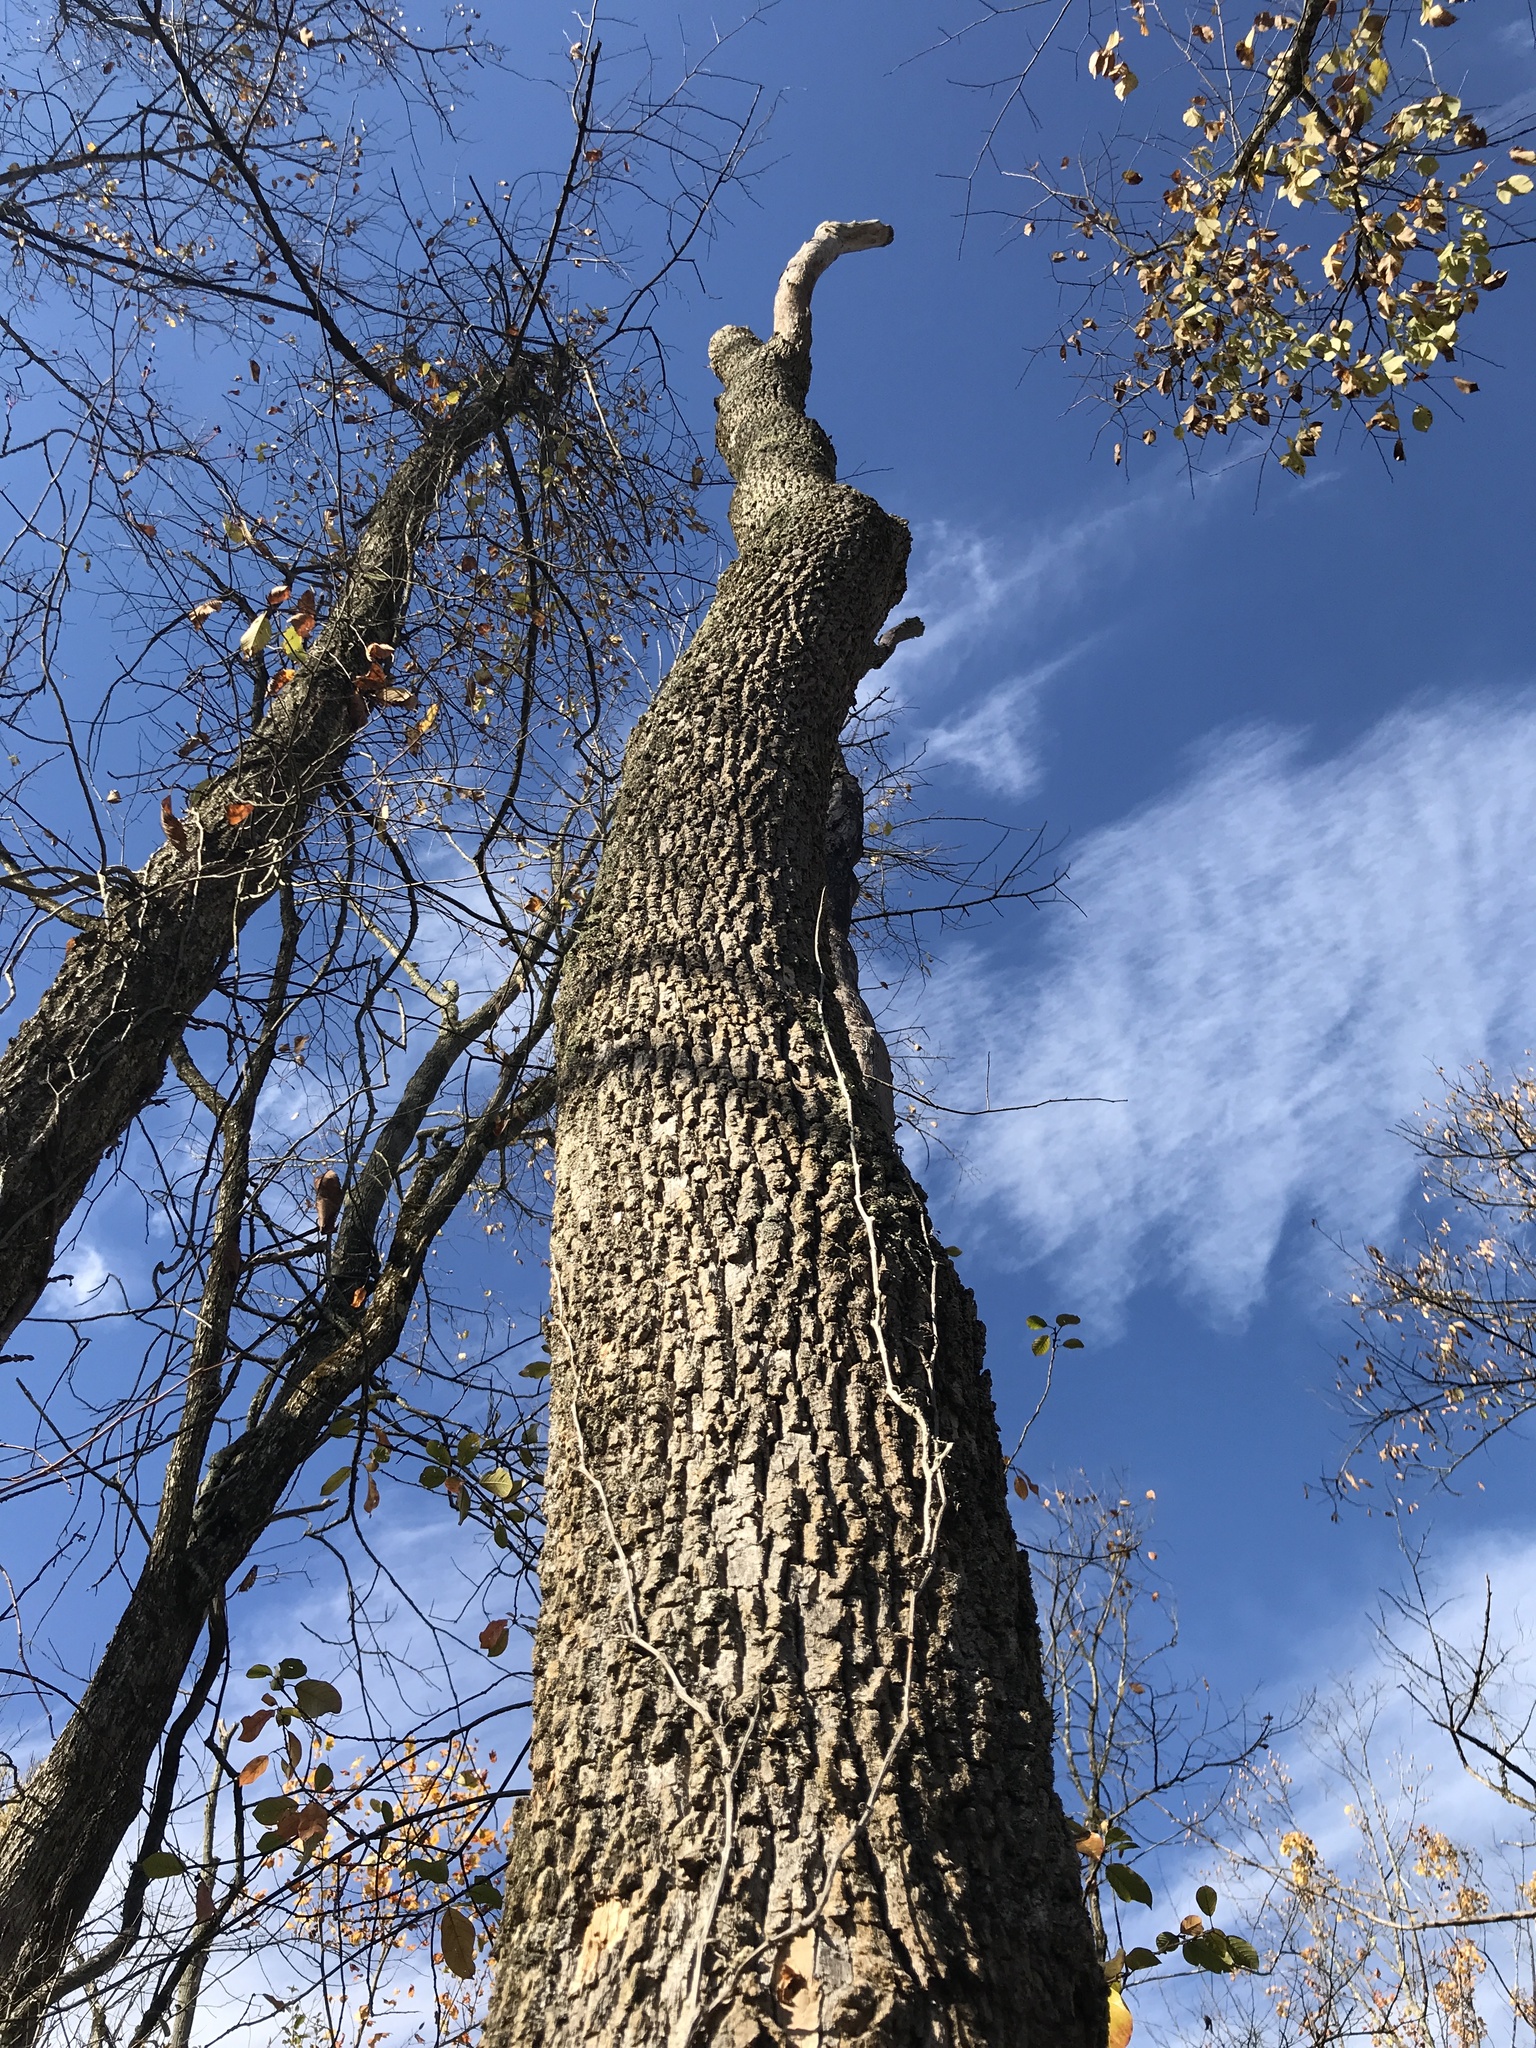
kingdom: Animalia
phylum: Arthropoda
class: Insecta
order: Coleoptera
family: Buprestidae
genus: Agrilus
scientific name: Agrilus planipennis
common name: Emerald ash borer
